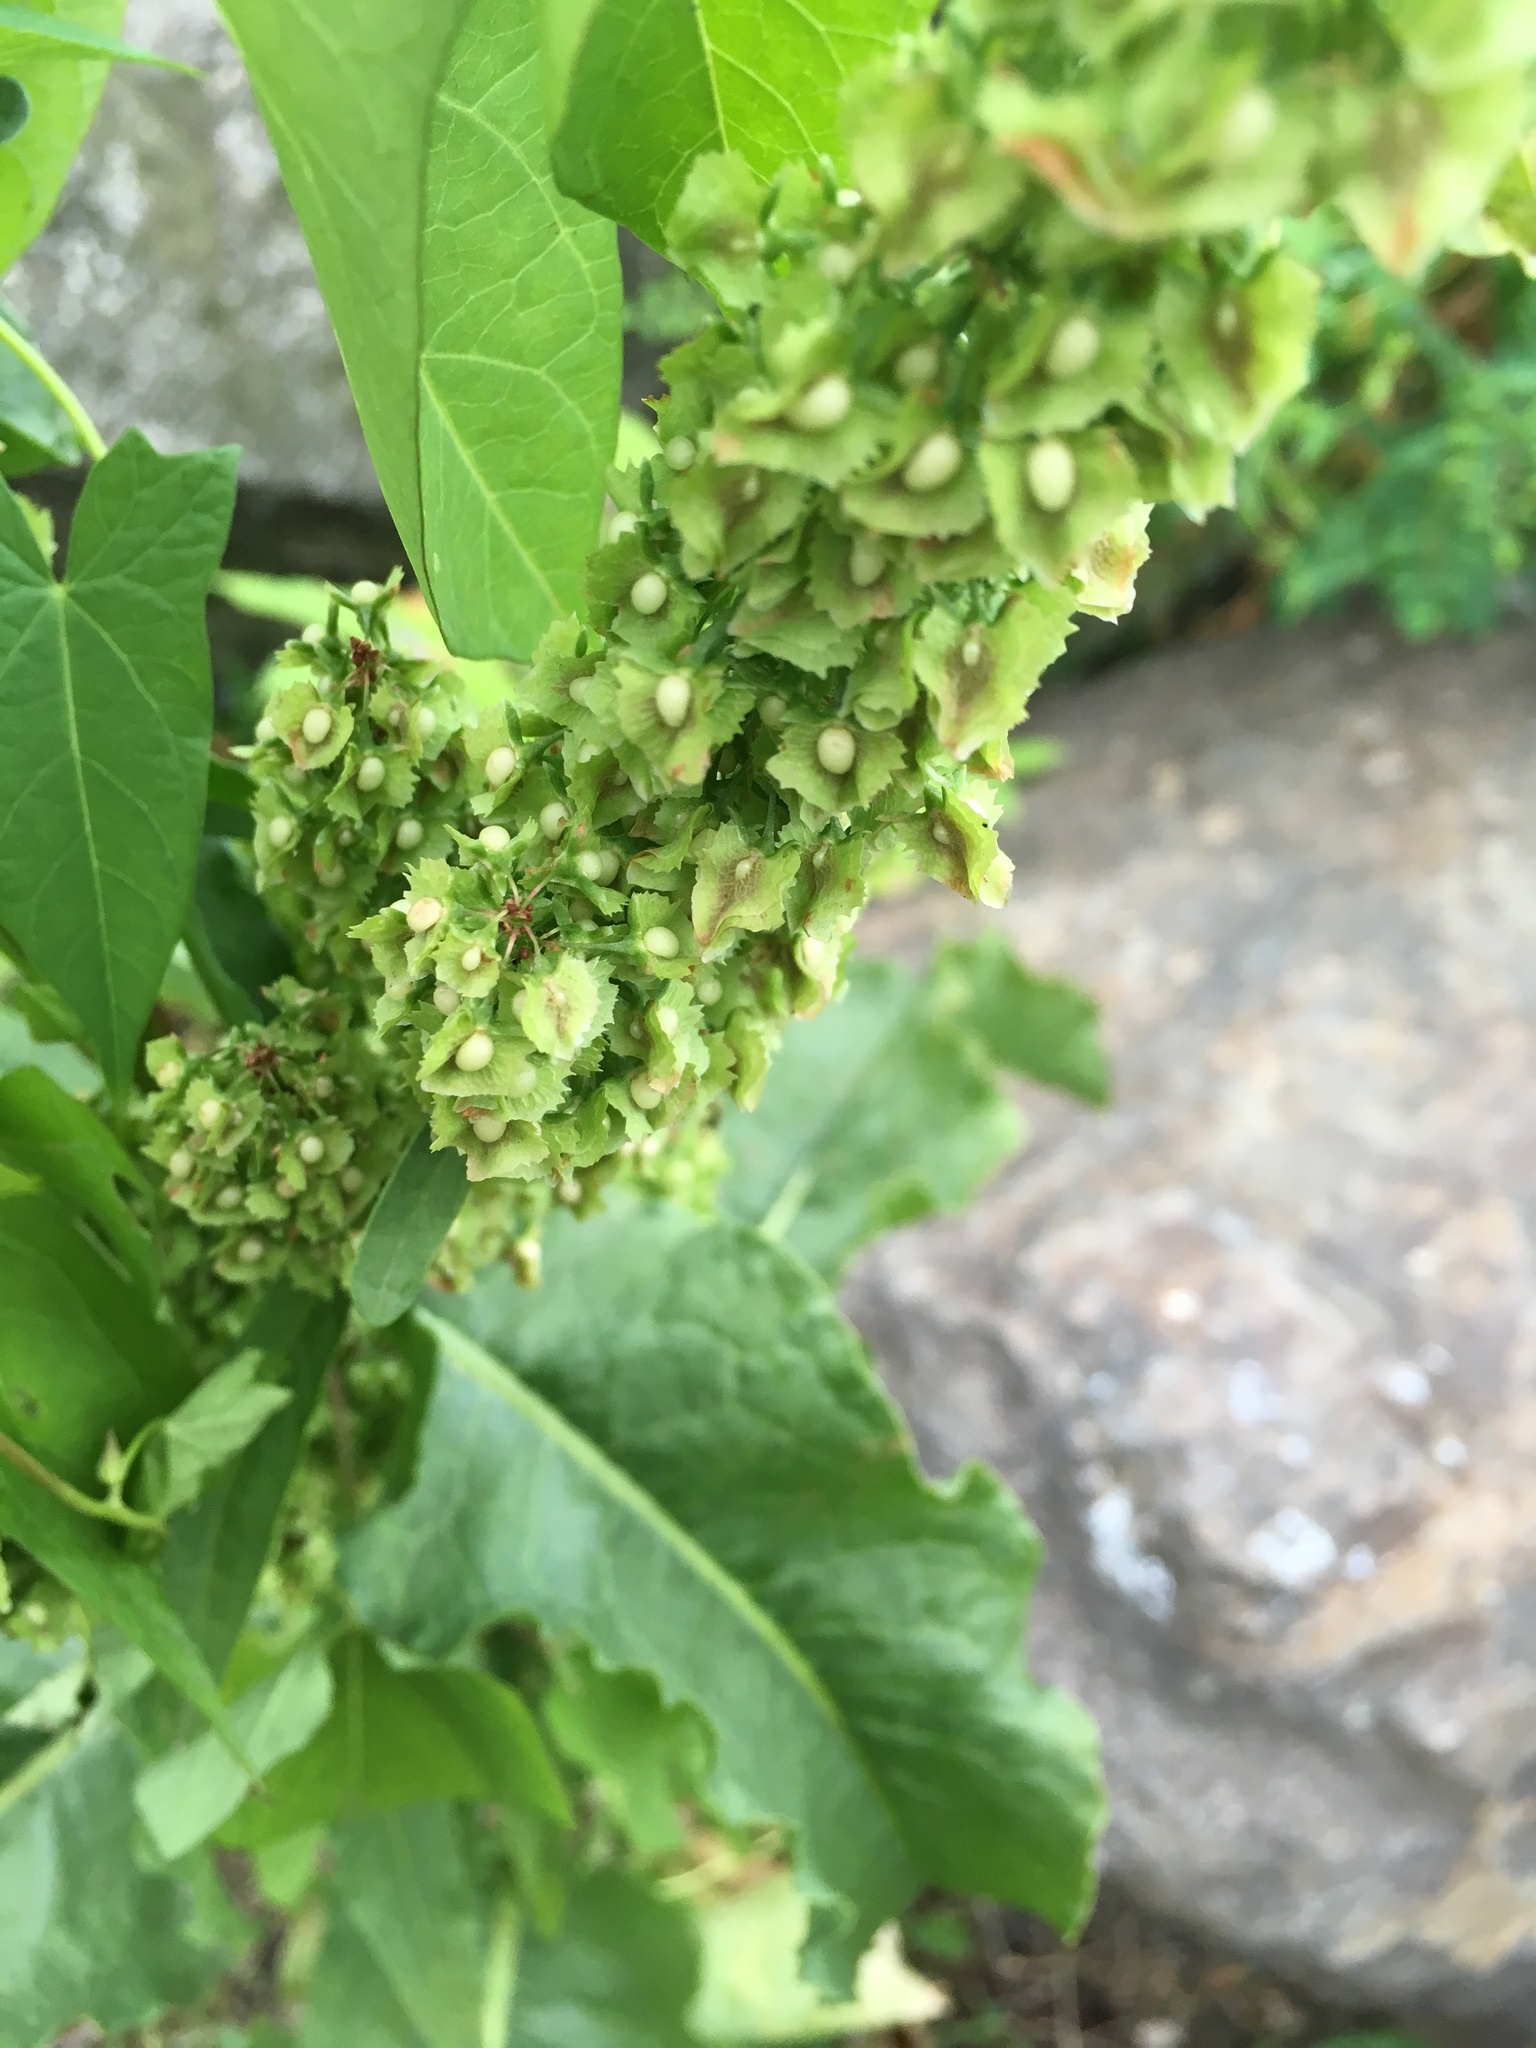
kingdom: Plantae
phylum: Tracheophyta
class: Magnoliopsida
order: Caryophyllales
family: Polygonaceae
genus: Rumex
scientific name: Rumex crispus
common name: Curled dock
